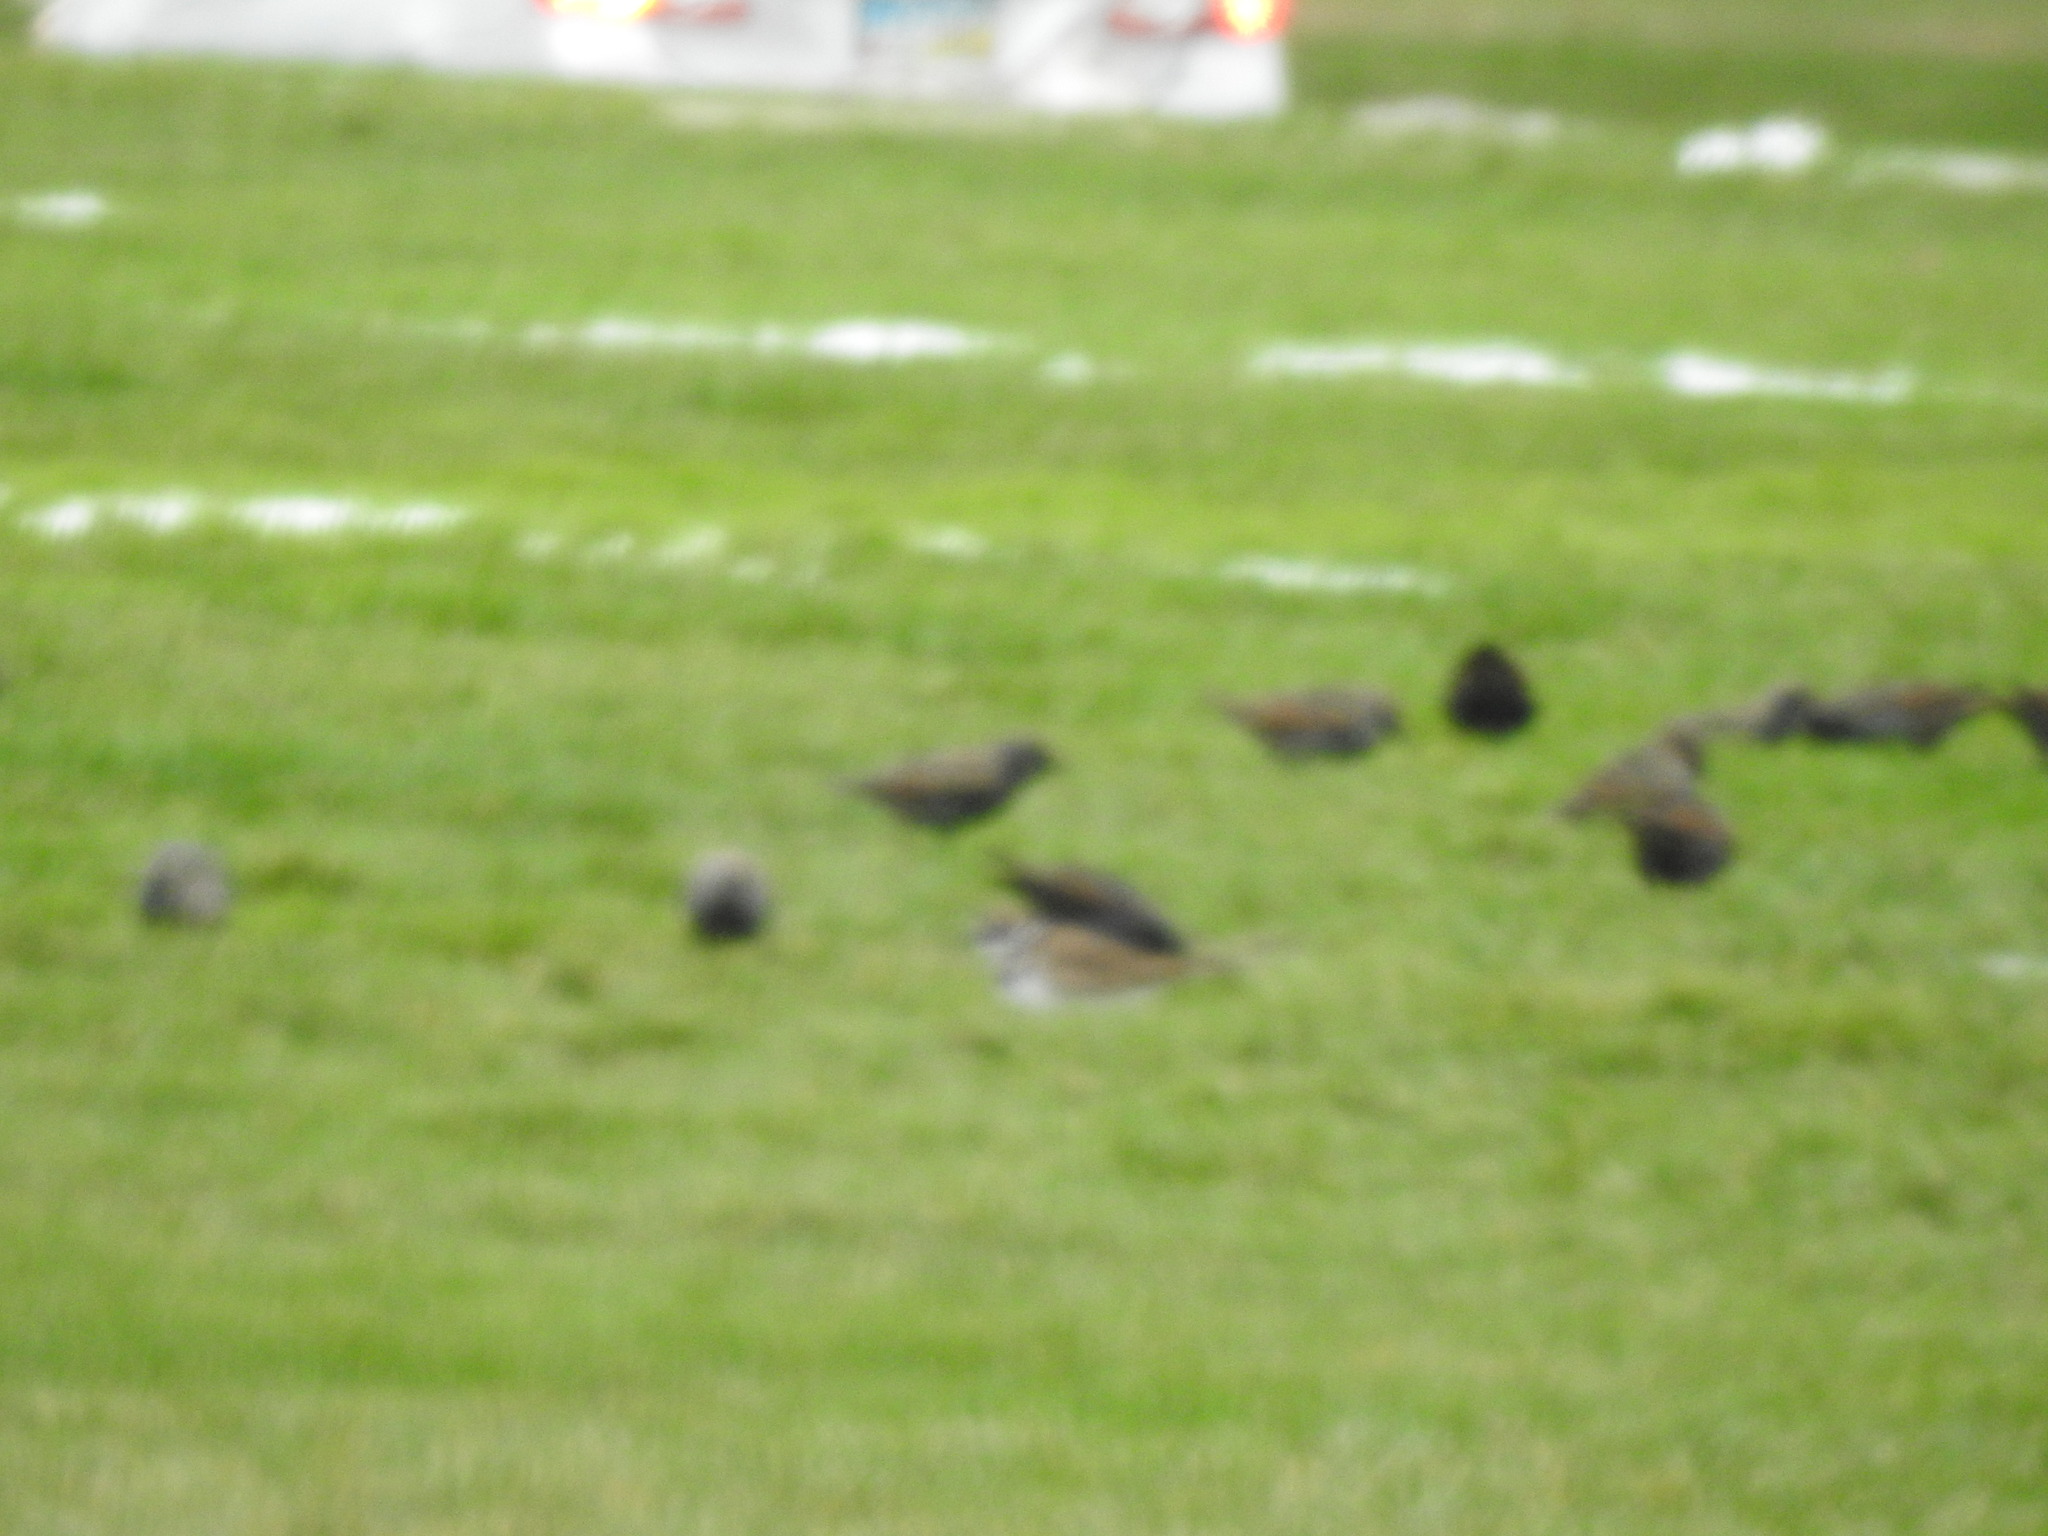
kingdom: Animalia
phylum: Chordata
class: Aves
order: Passeriformes
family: Sturnidae
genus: Sturnus
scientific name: Sturnus vulgaris
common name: Common starling
